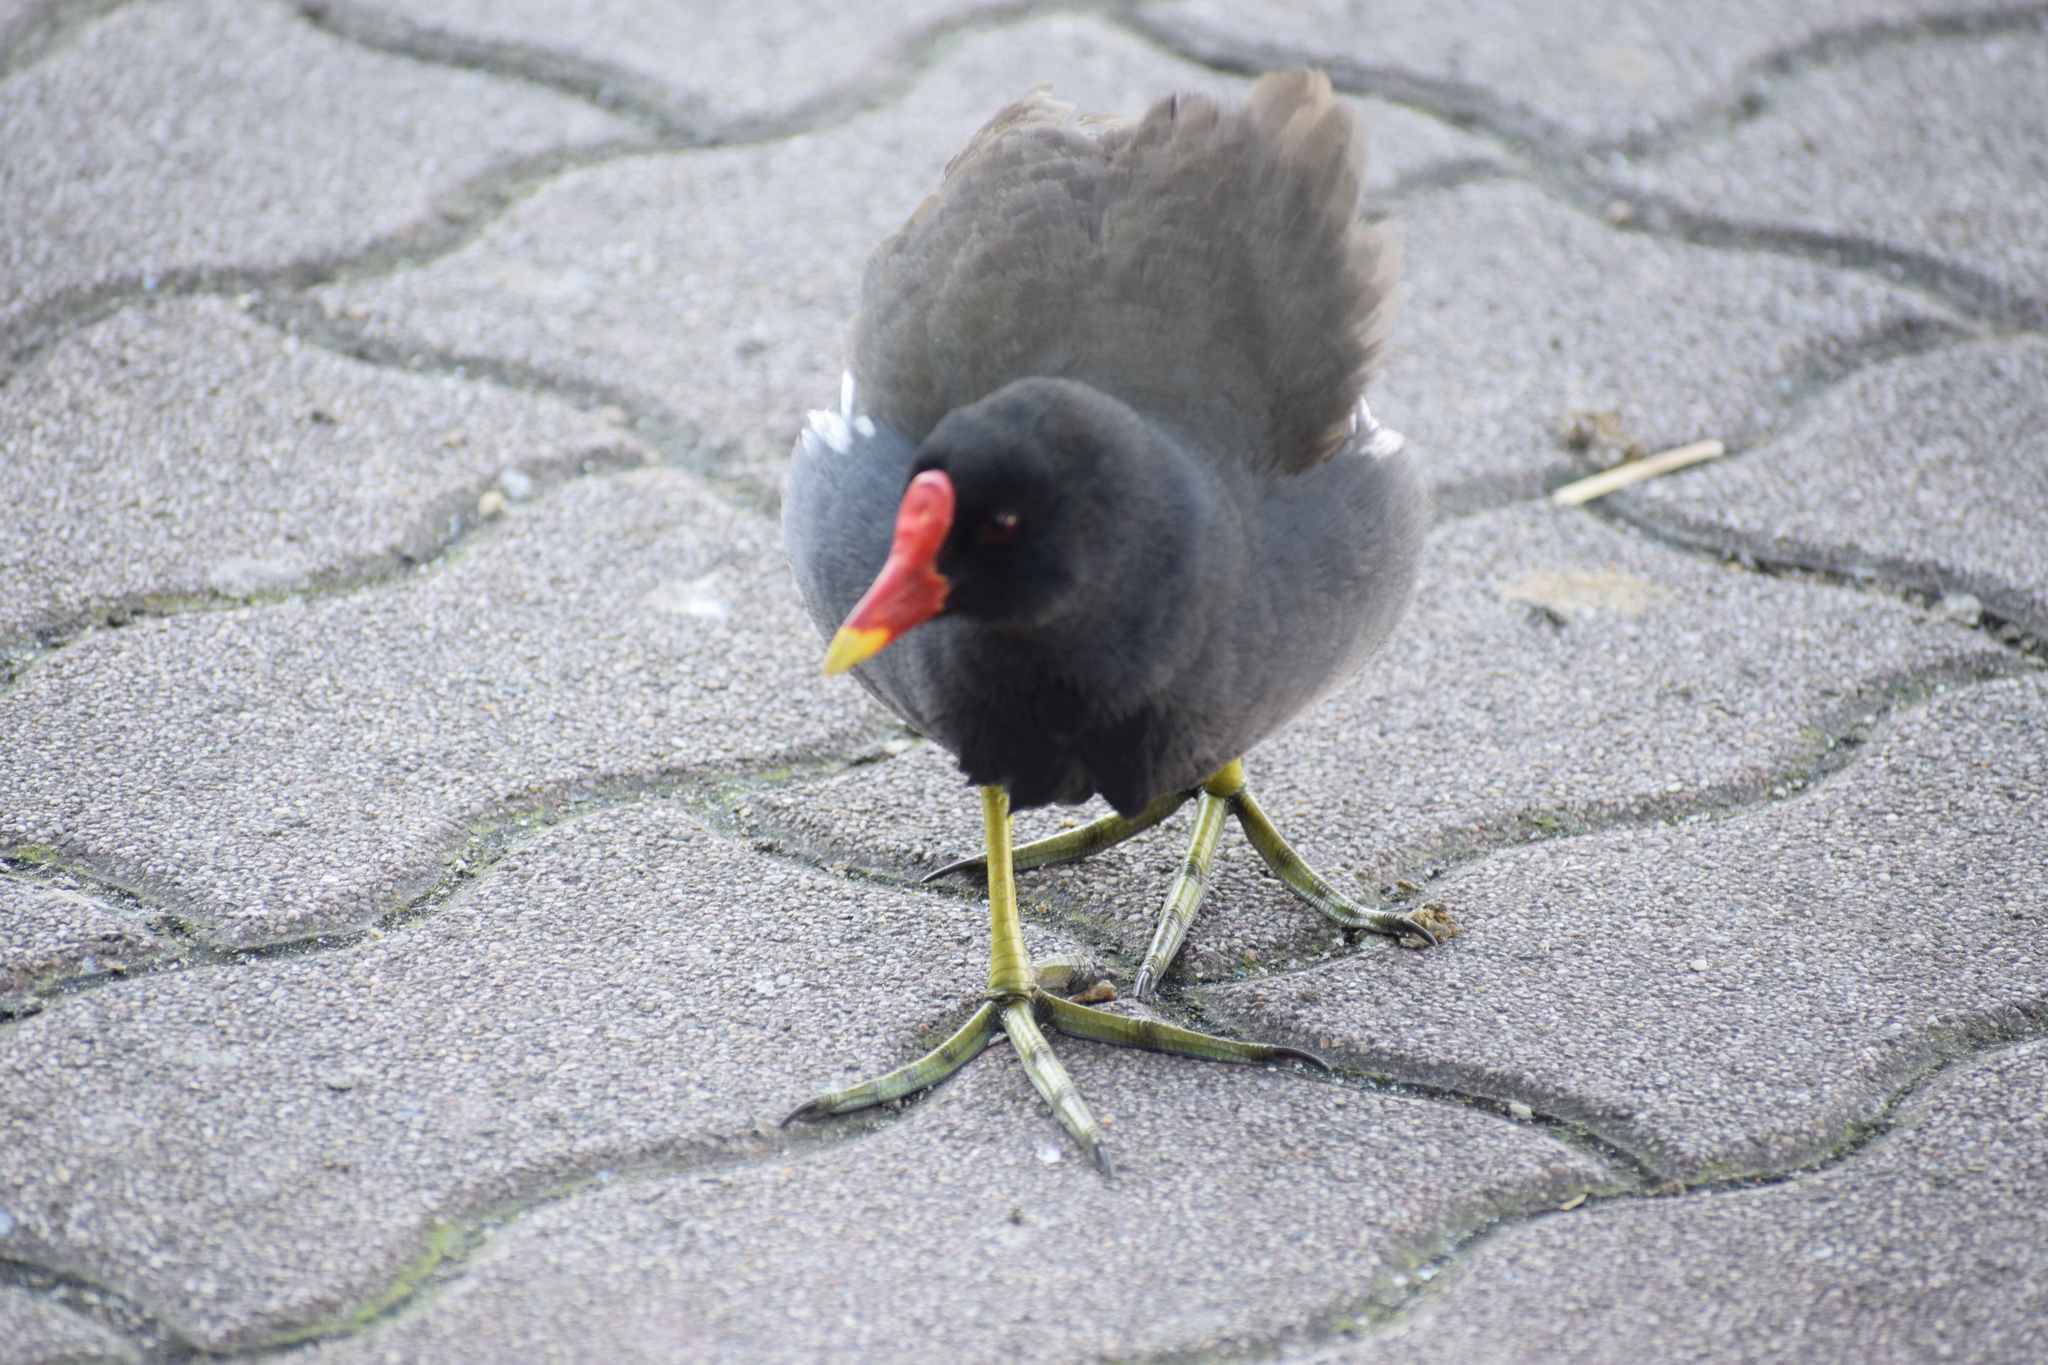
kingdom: Animalia
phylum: Chordata
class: Aves
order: Gruiformes
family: Rallidae
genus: Gallinula
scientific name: Gallinula chloropus
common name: Common moorhen
